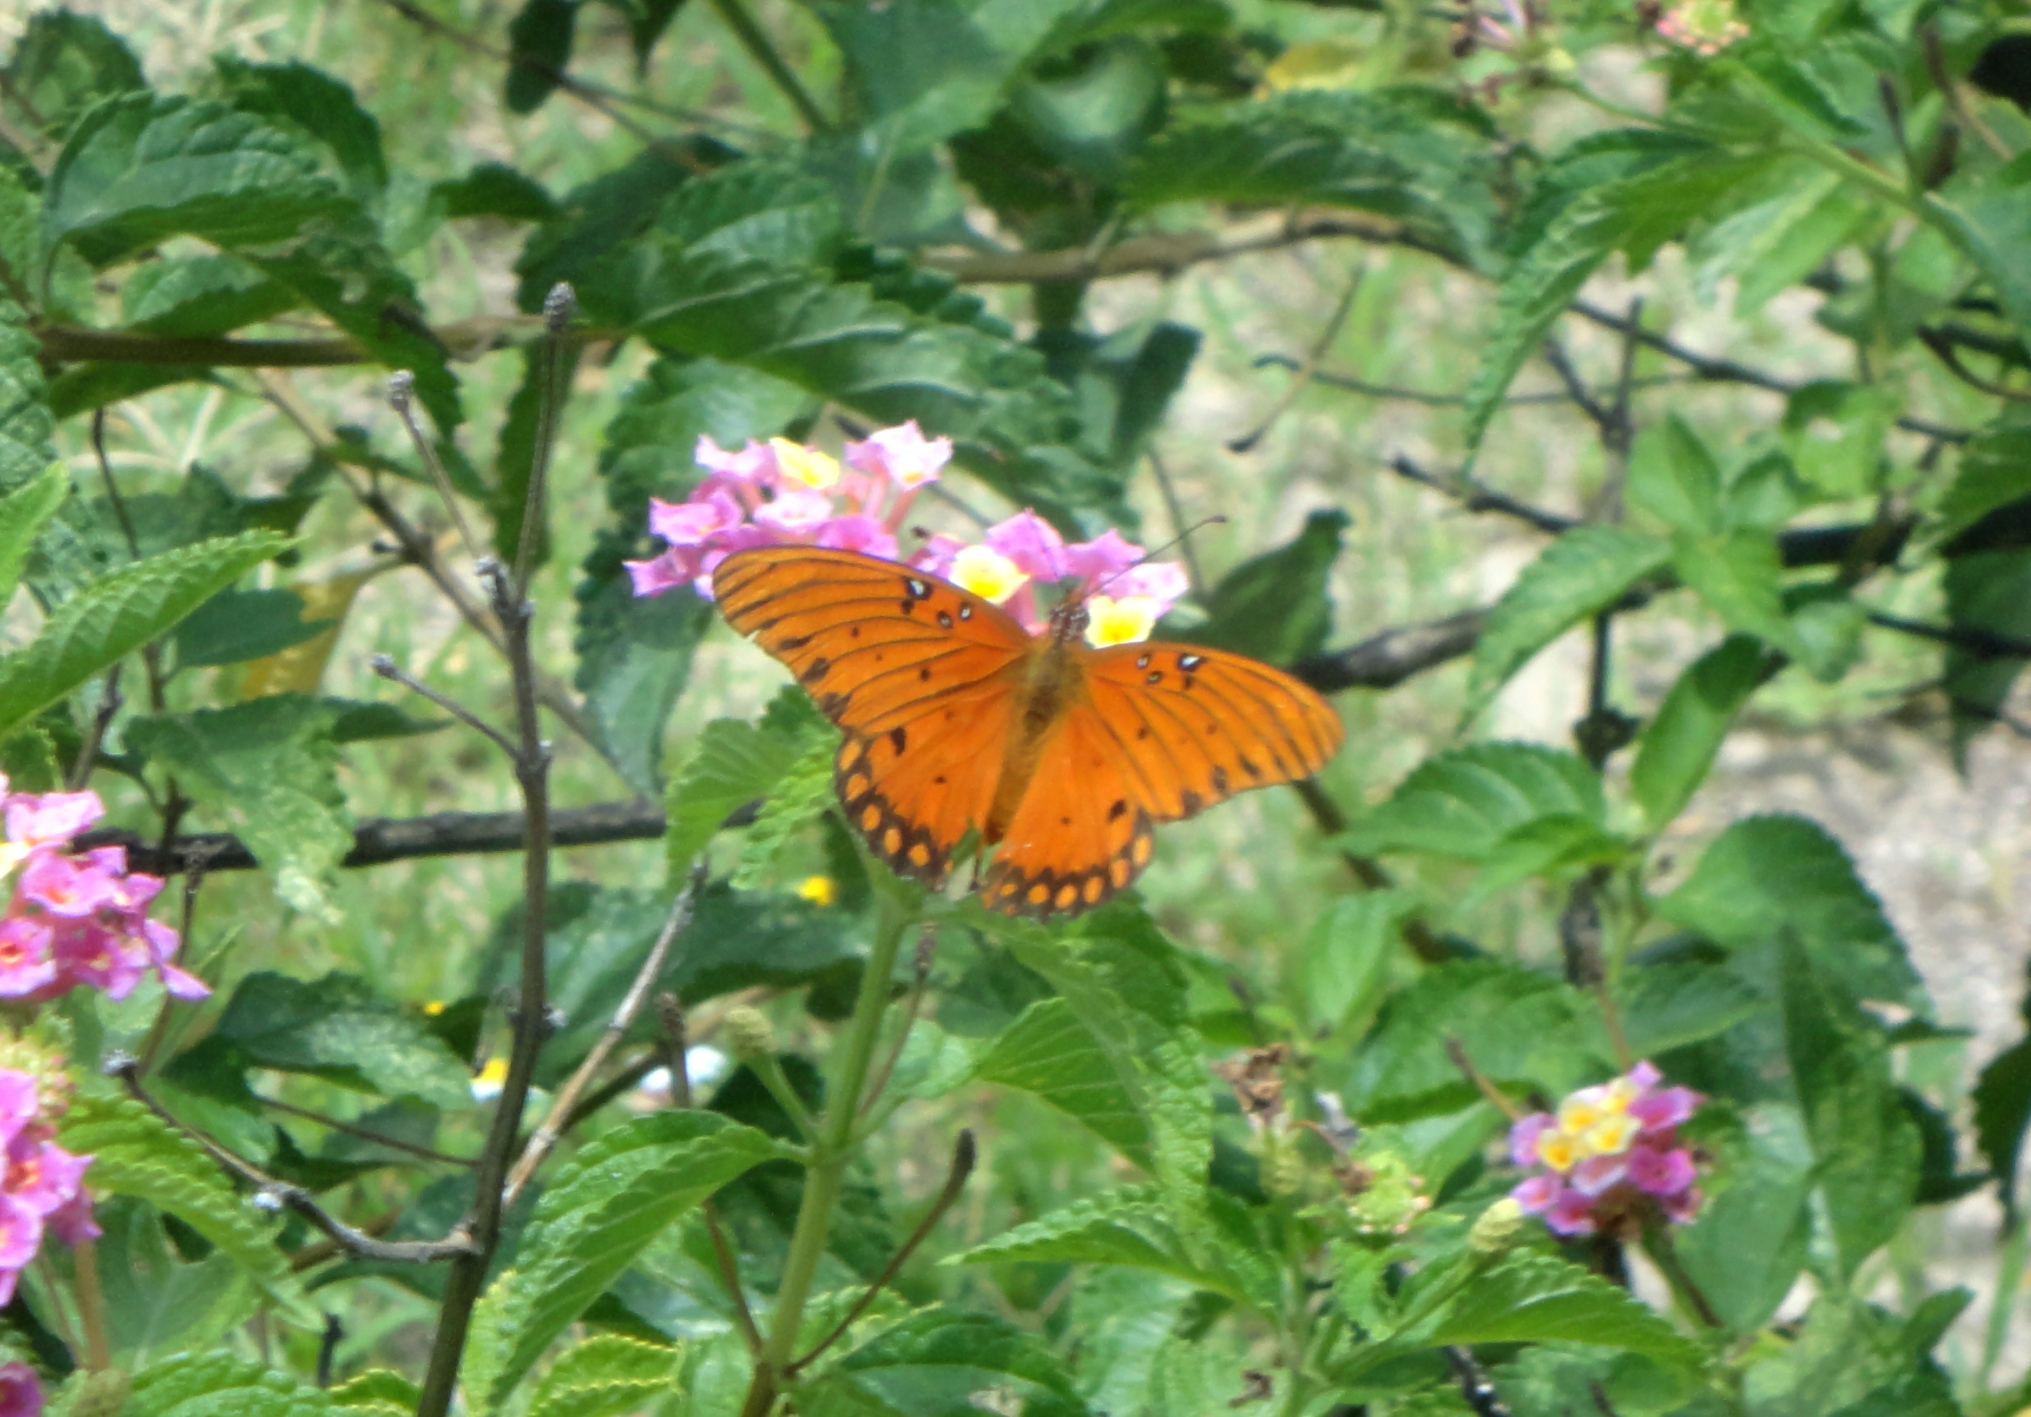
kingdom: Animalia
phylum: Arthropoda
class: Insecta
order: Lepidoptera
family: Nymphalidae
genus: Dione
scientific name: Dione vanillae
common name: Gulf fritillary
